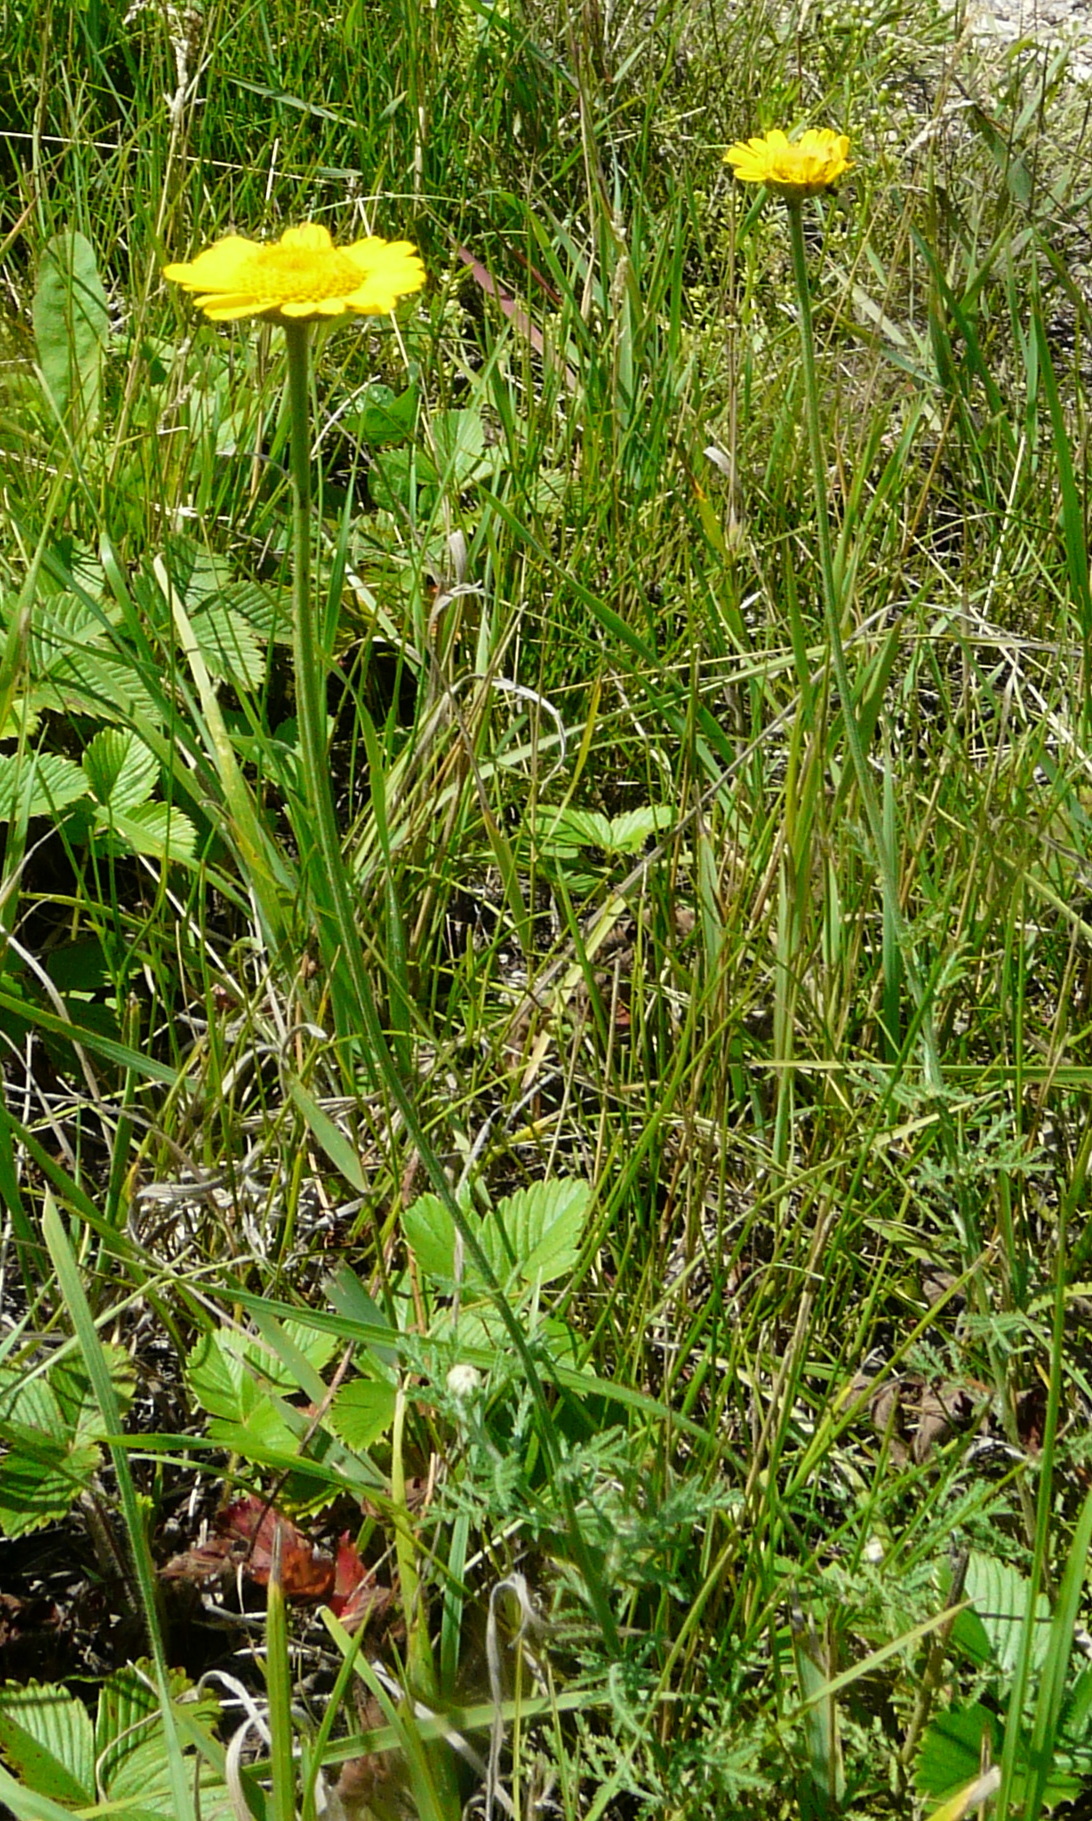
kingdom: Plantae
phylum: Tracheophyta
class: Magnoliopsida
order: Asterales
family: Asteraceae
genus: Cota
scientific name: Cota tinctoria
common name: Golden chamomile
